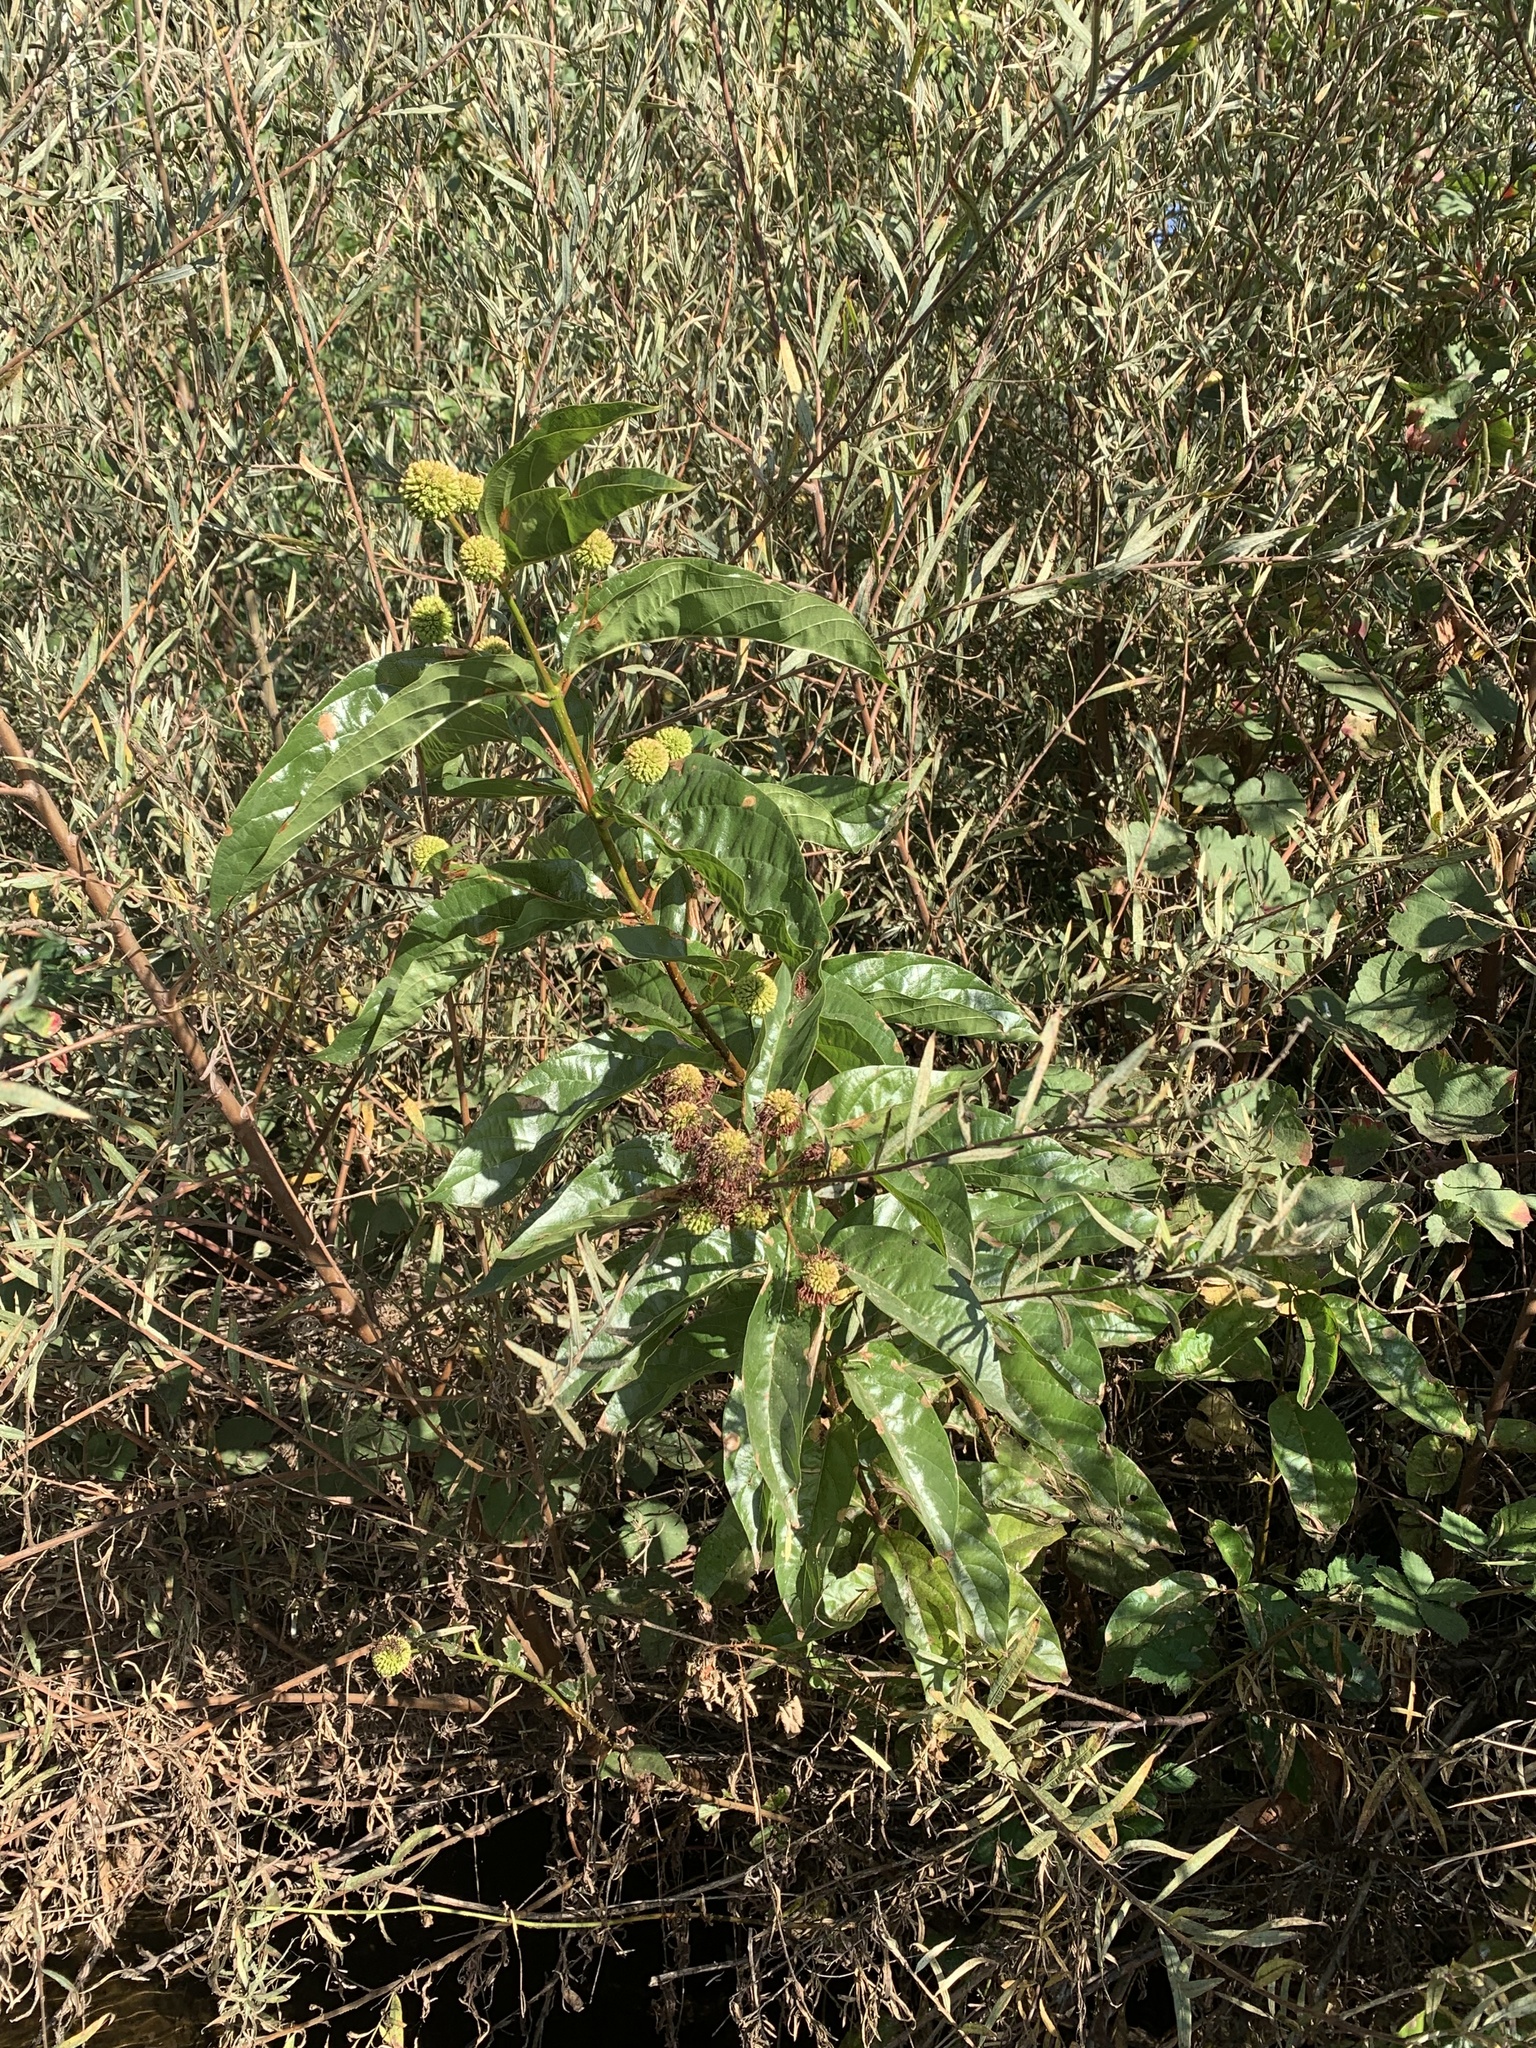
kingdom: Plantae
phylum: Tracheophyta
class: Magnoliopsida
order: Gentianales
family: Rubiaceae
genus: Cephalanthus
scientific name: Cephalanthus occidentalis
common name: Button-willow
